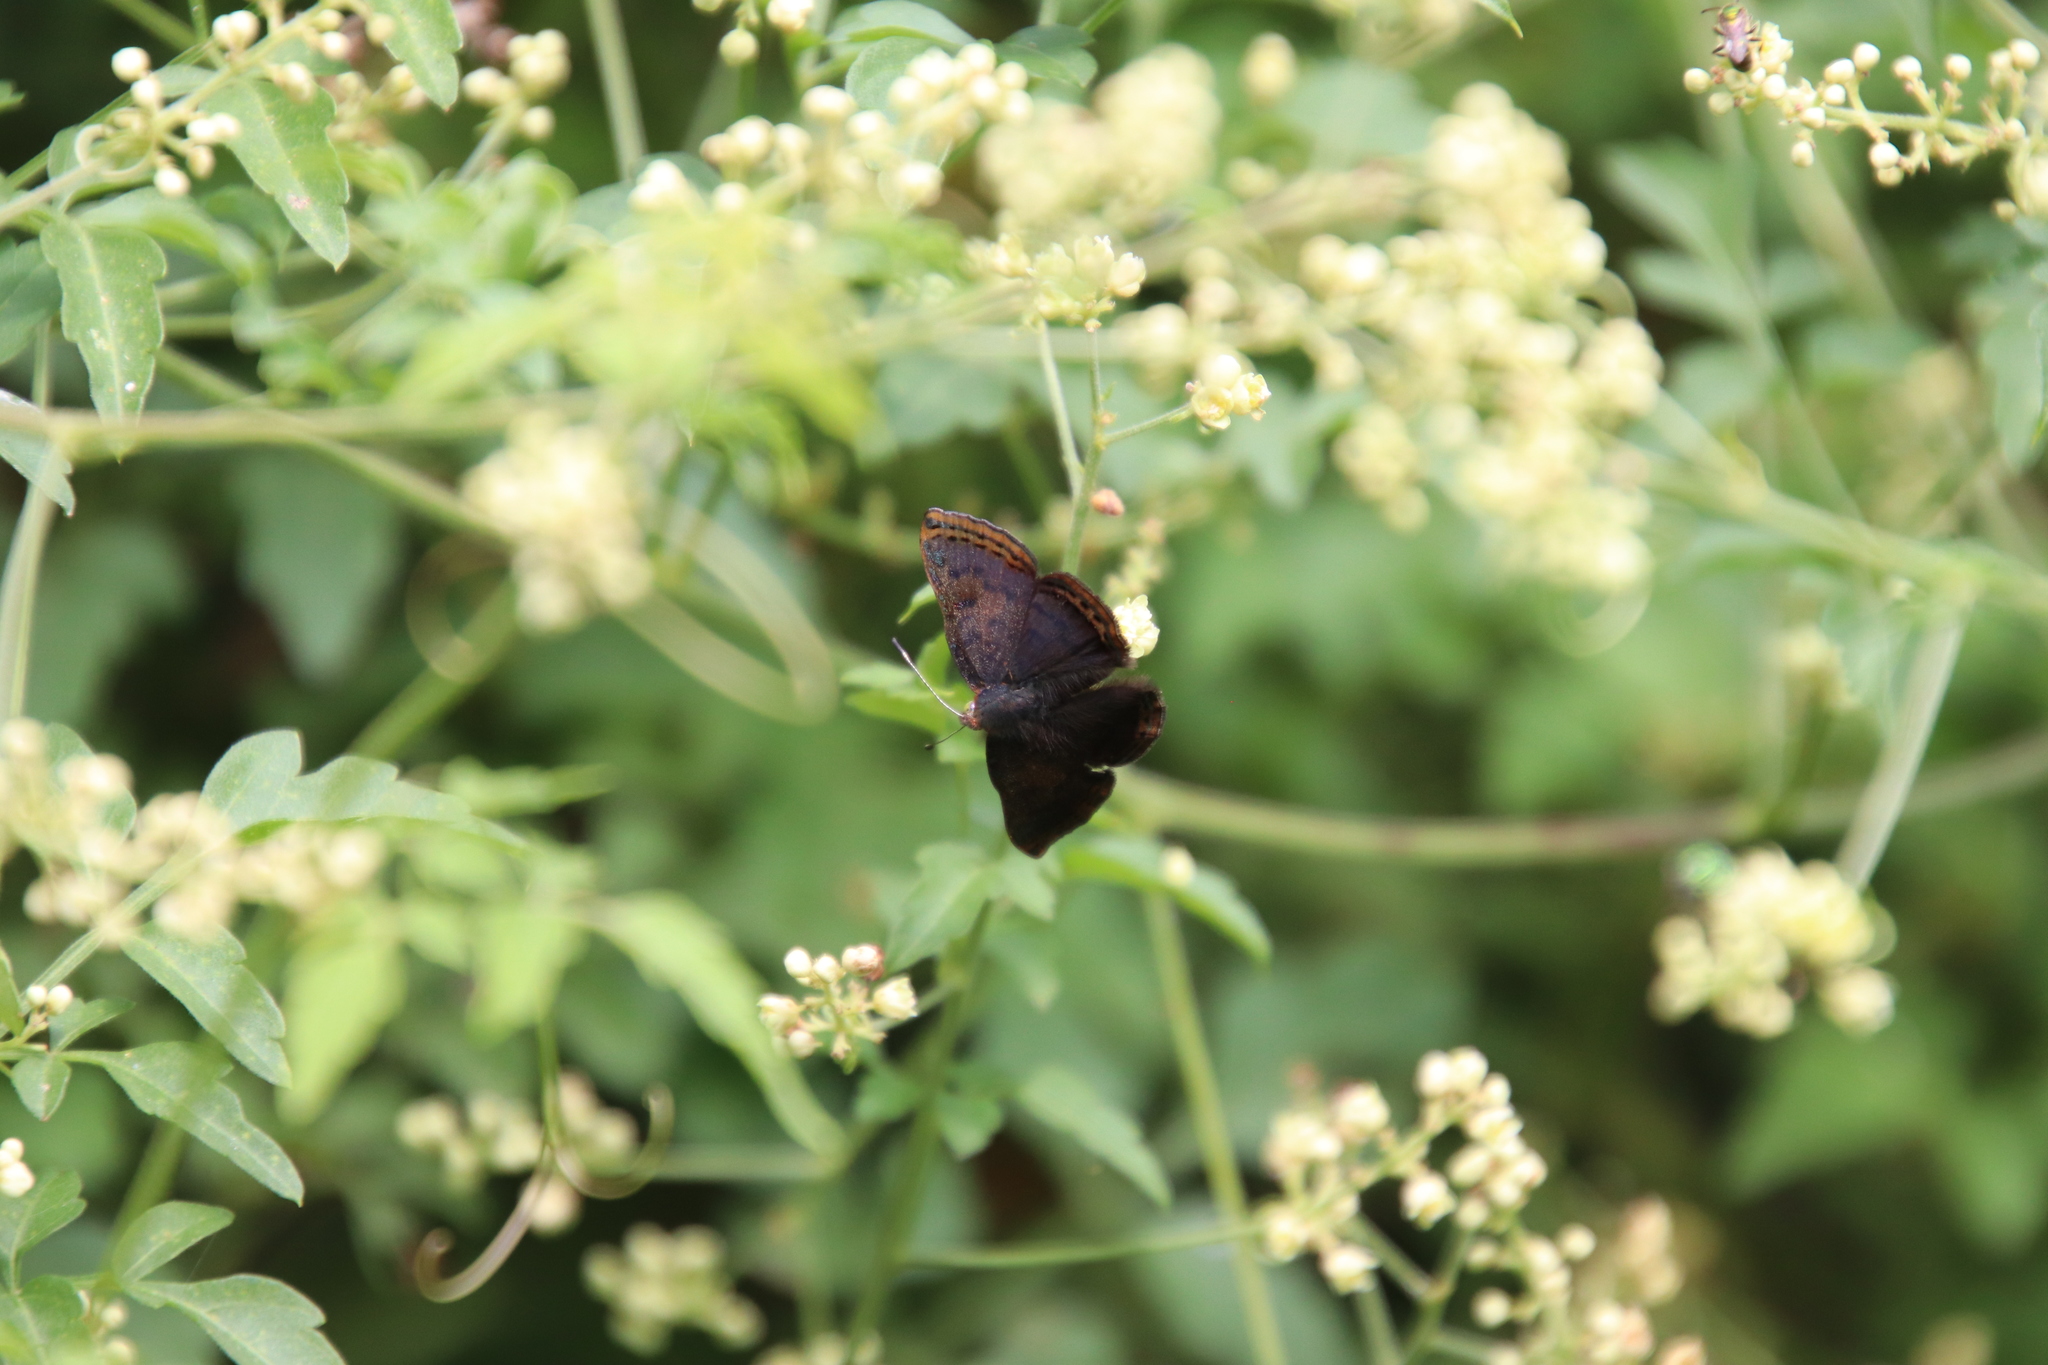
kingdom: Animalia
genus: Caria
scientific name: Caria ino
